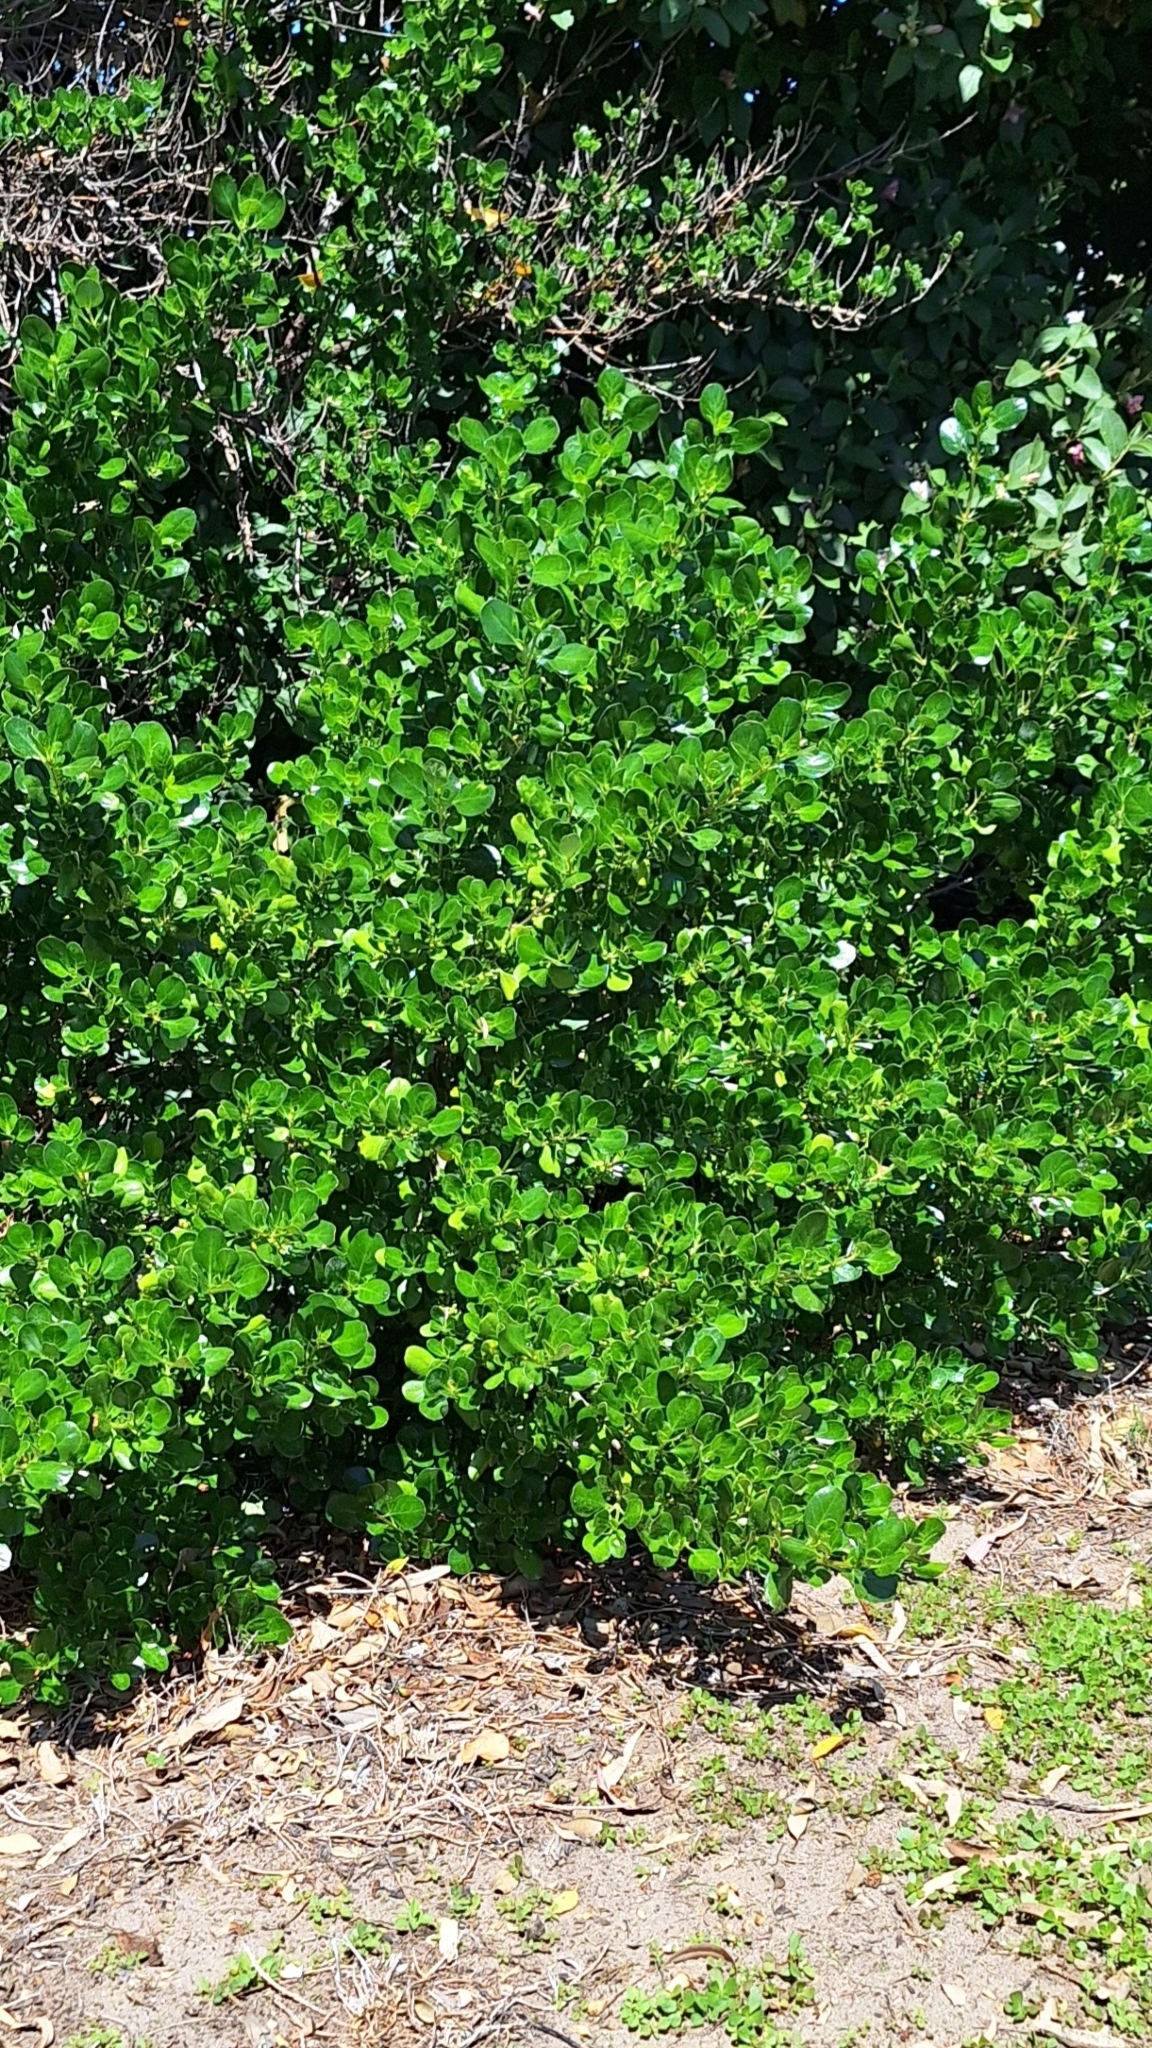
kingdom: Plantae
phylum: Tracheophyta
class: Magnoliopsida
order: Gentianales
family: Rubiaceae
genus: Coprosma
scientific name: Coprosma repens
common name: Tree bedstraw
